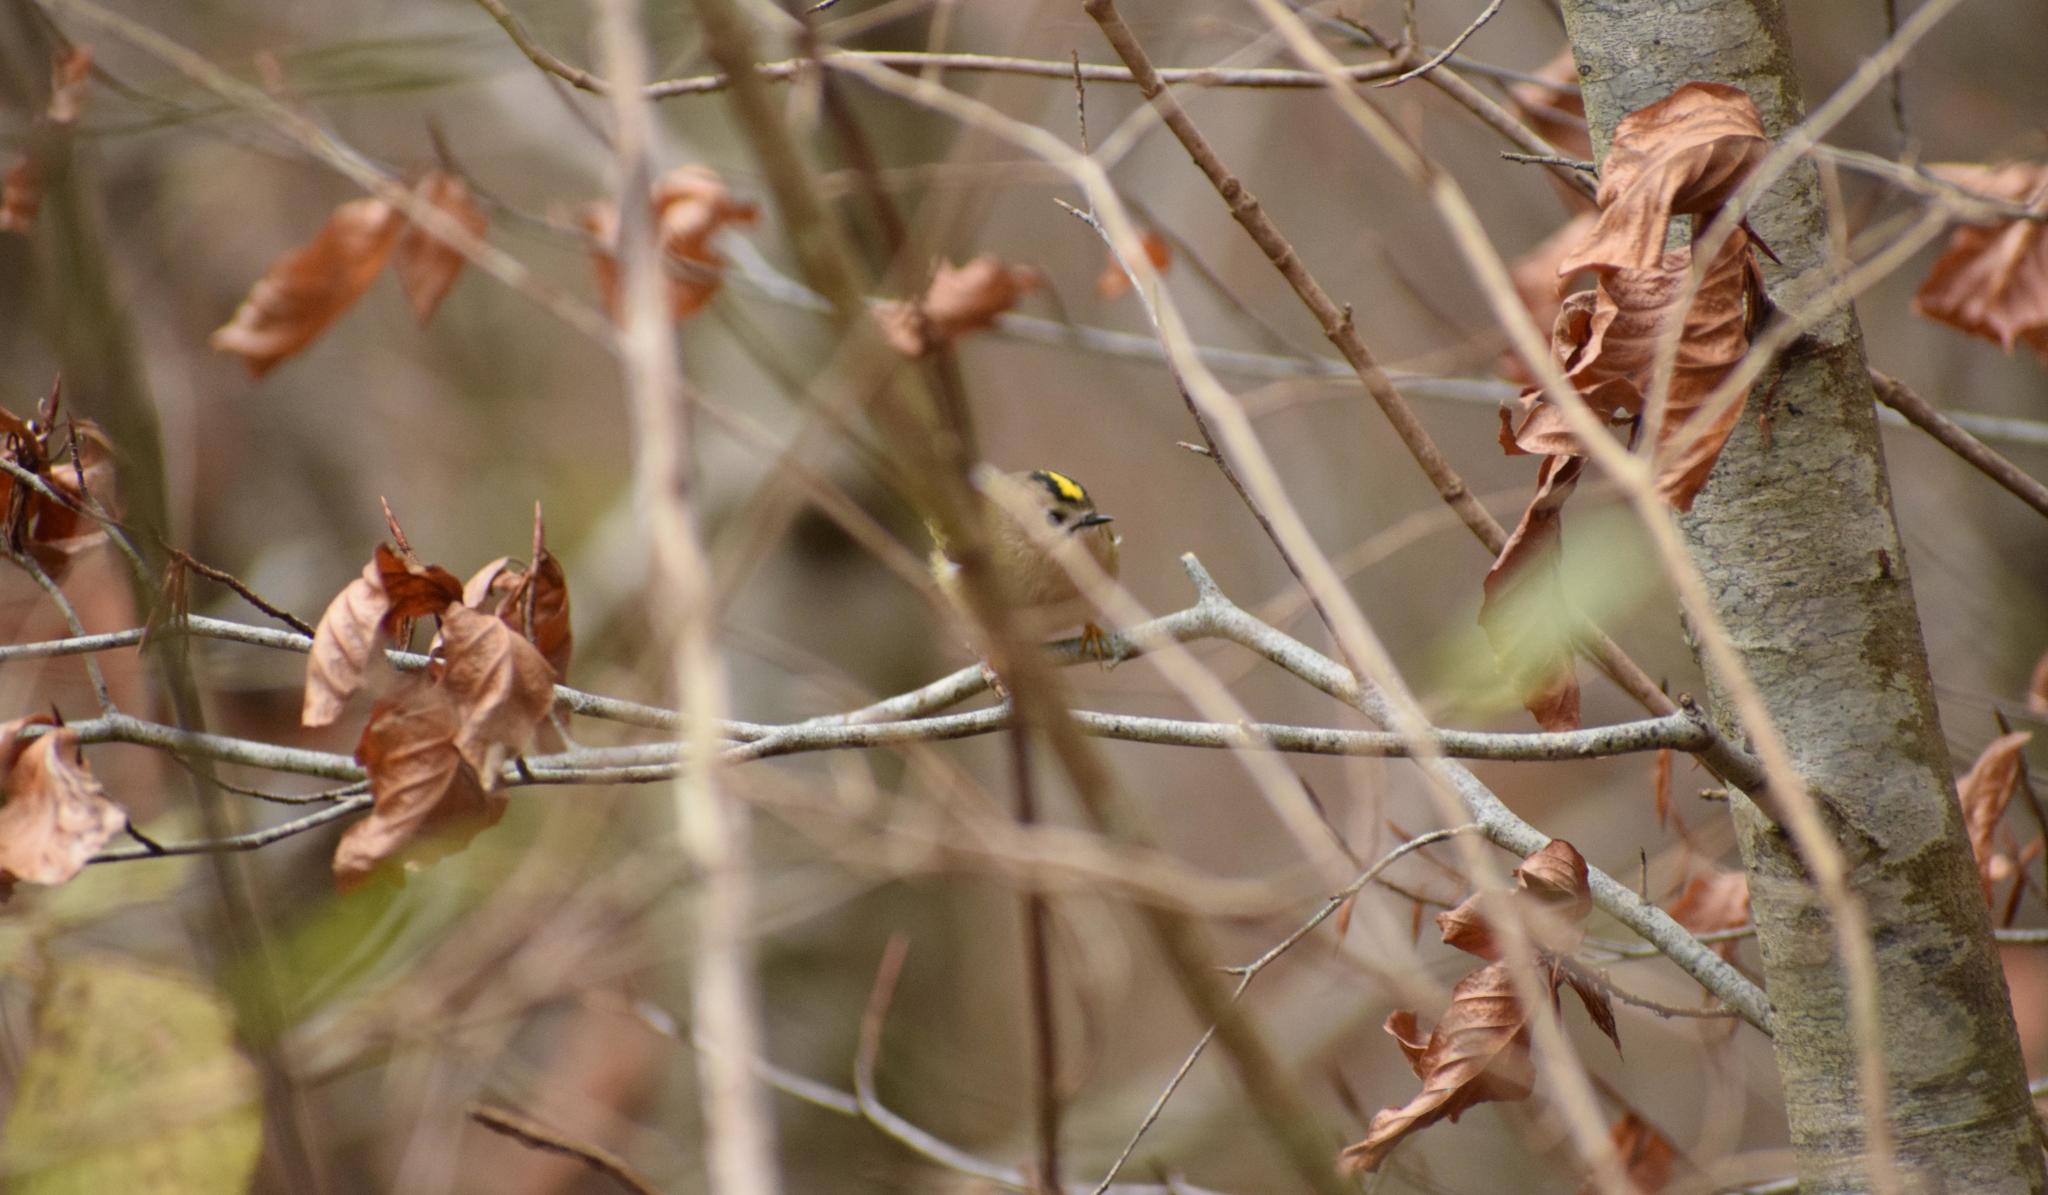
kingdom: Animalia
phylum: Chordata
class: Aves
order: Passeriformes
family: Regulidae
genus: Regulus
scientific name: Regulus regulus
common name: Goldcrest
